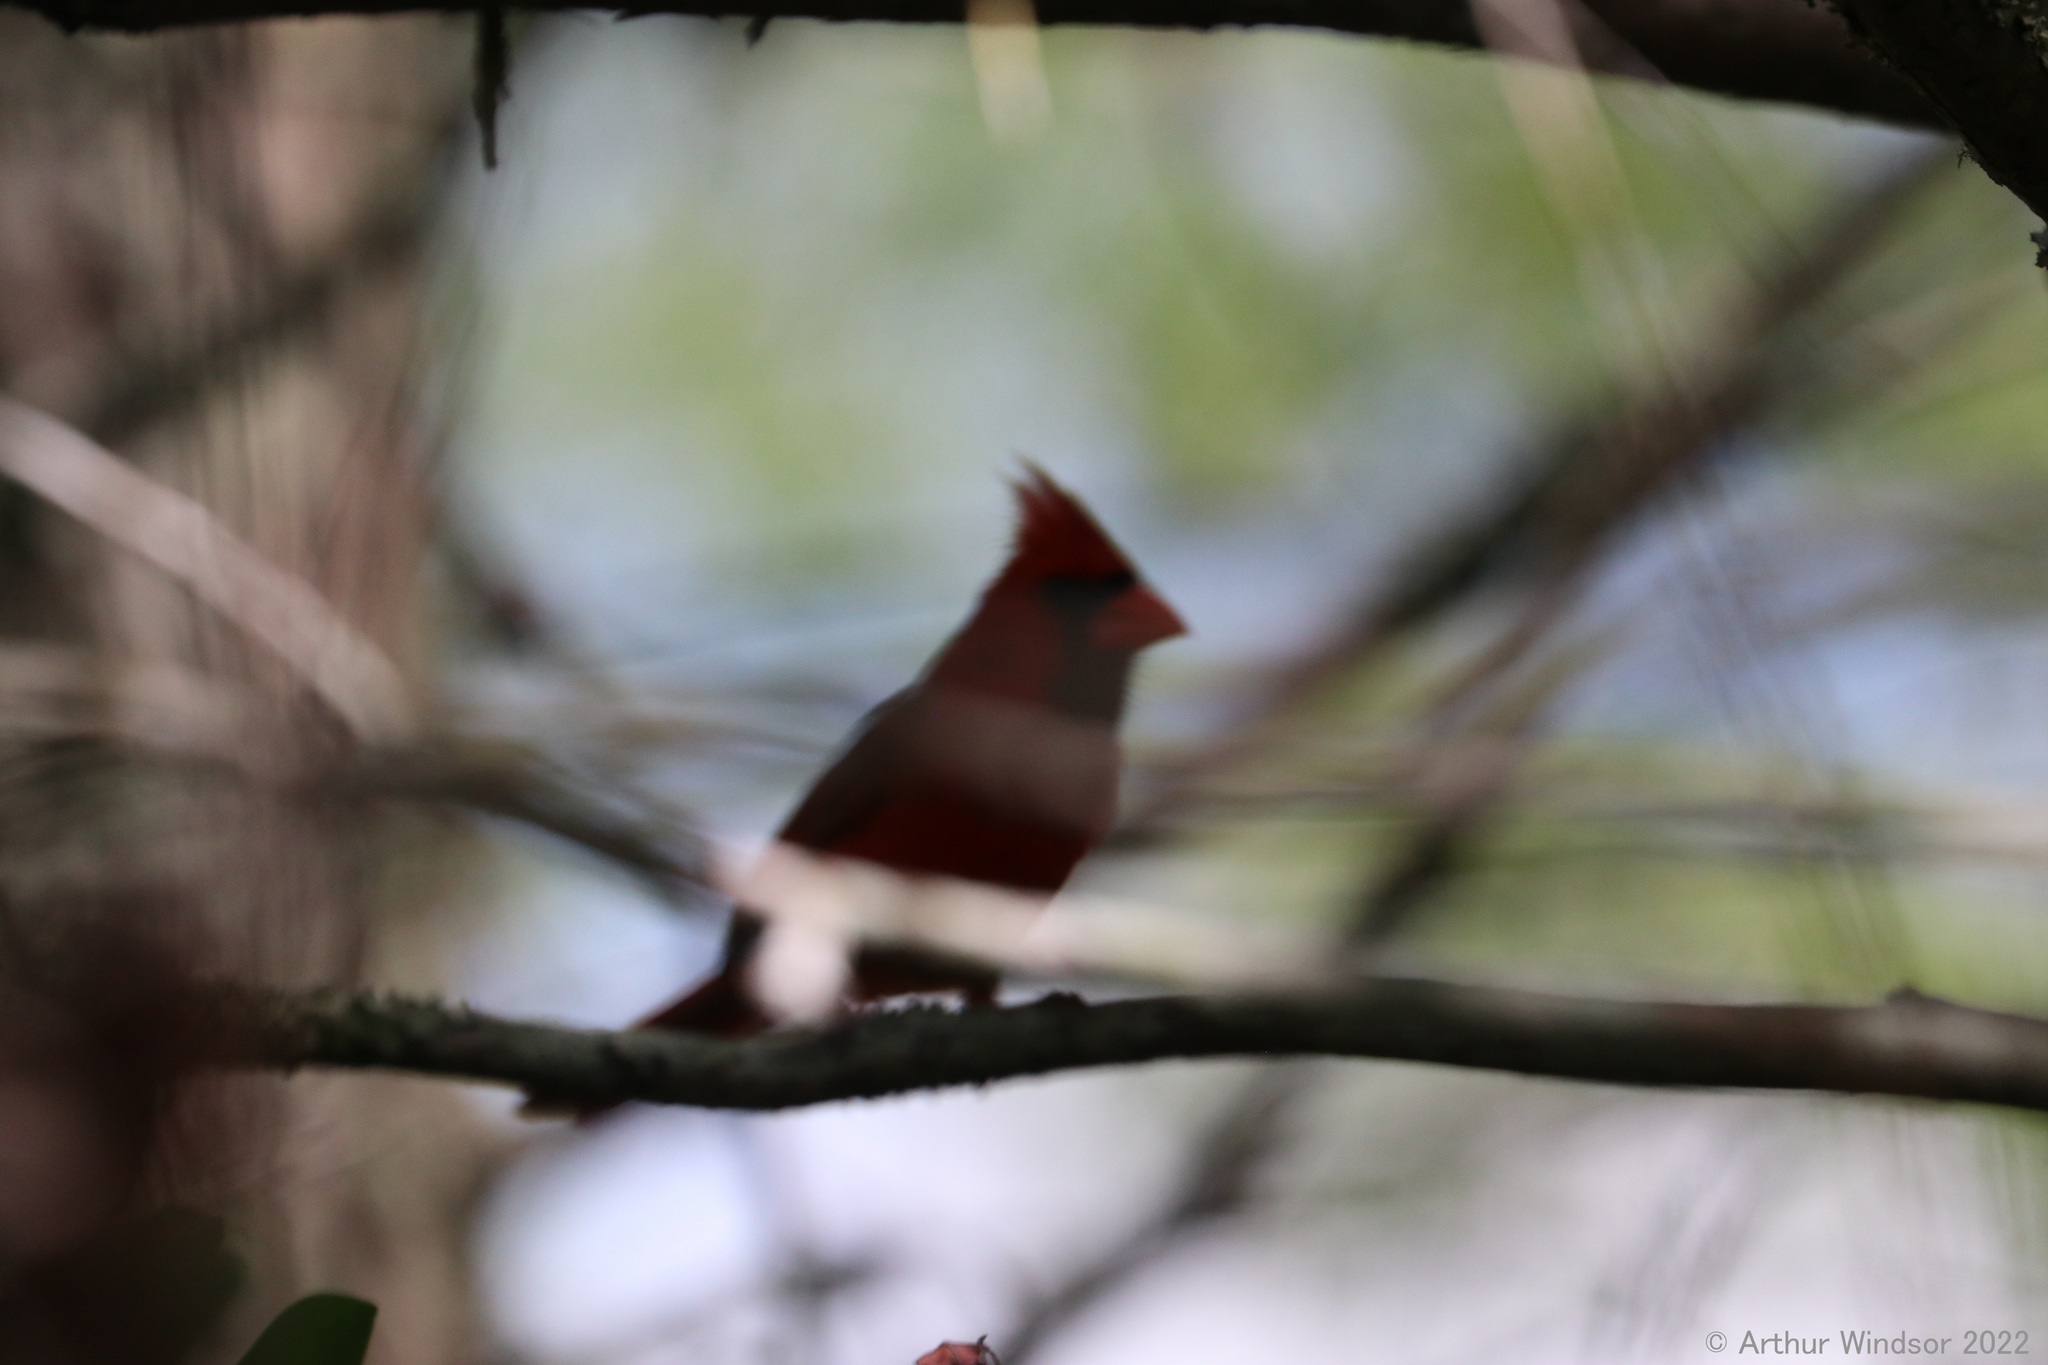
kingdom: Animalia
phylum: Chordata
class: Aves
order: Passeriformes
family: Cardinalidae
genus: Cardinalis
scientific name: Cardinalis cardinalis
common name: Northern cardinal
